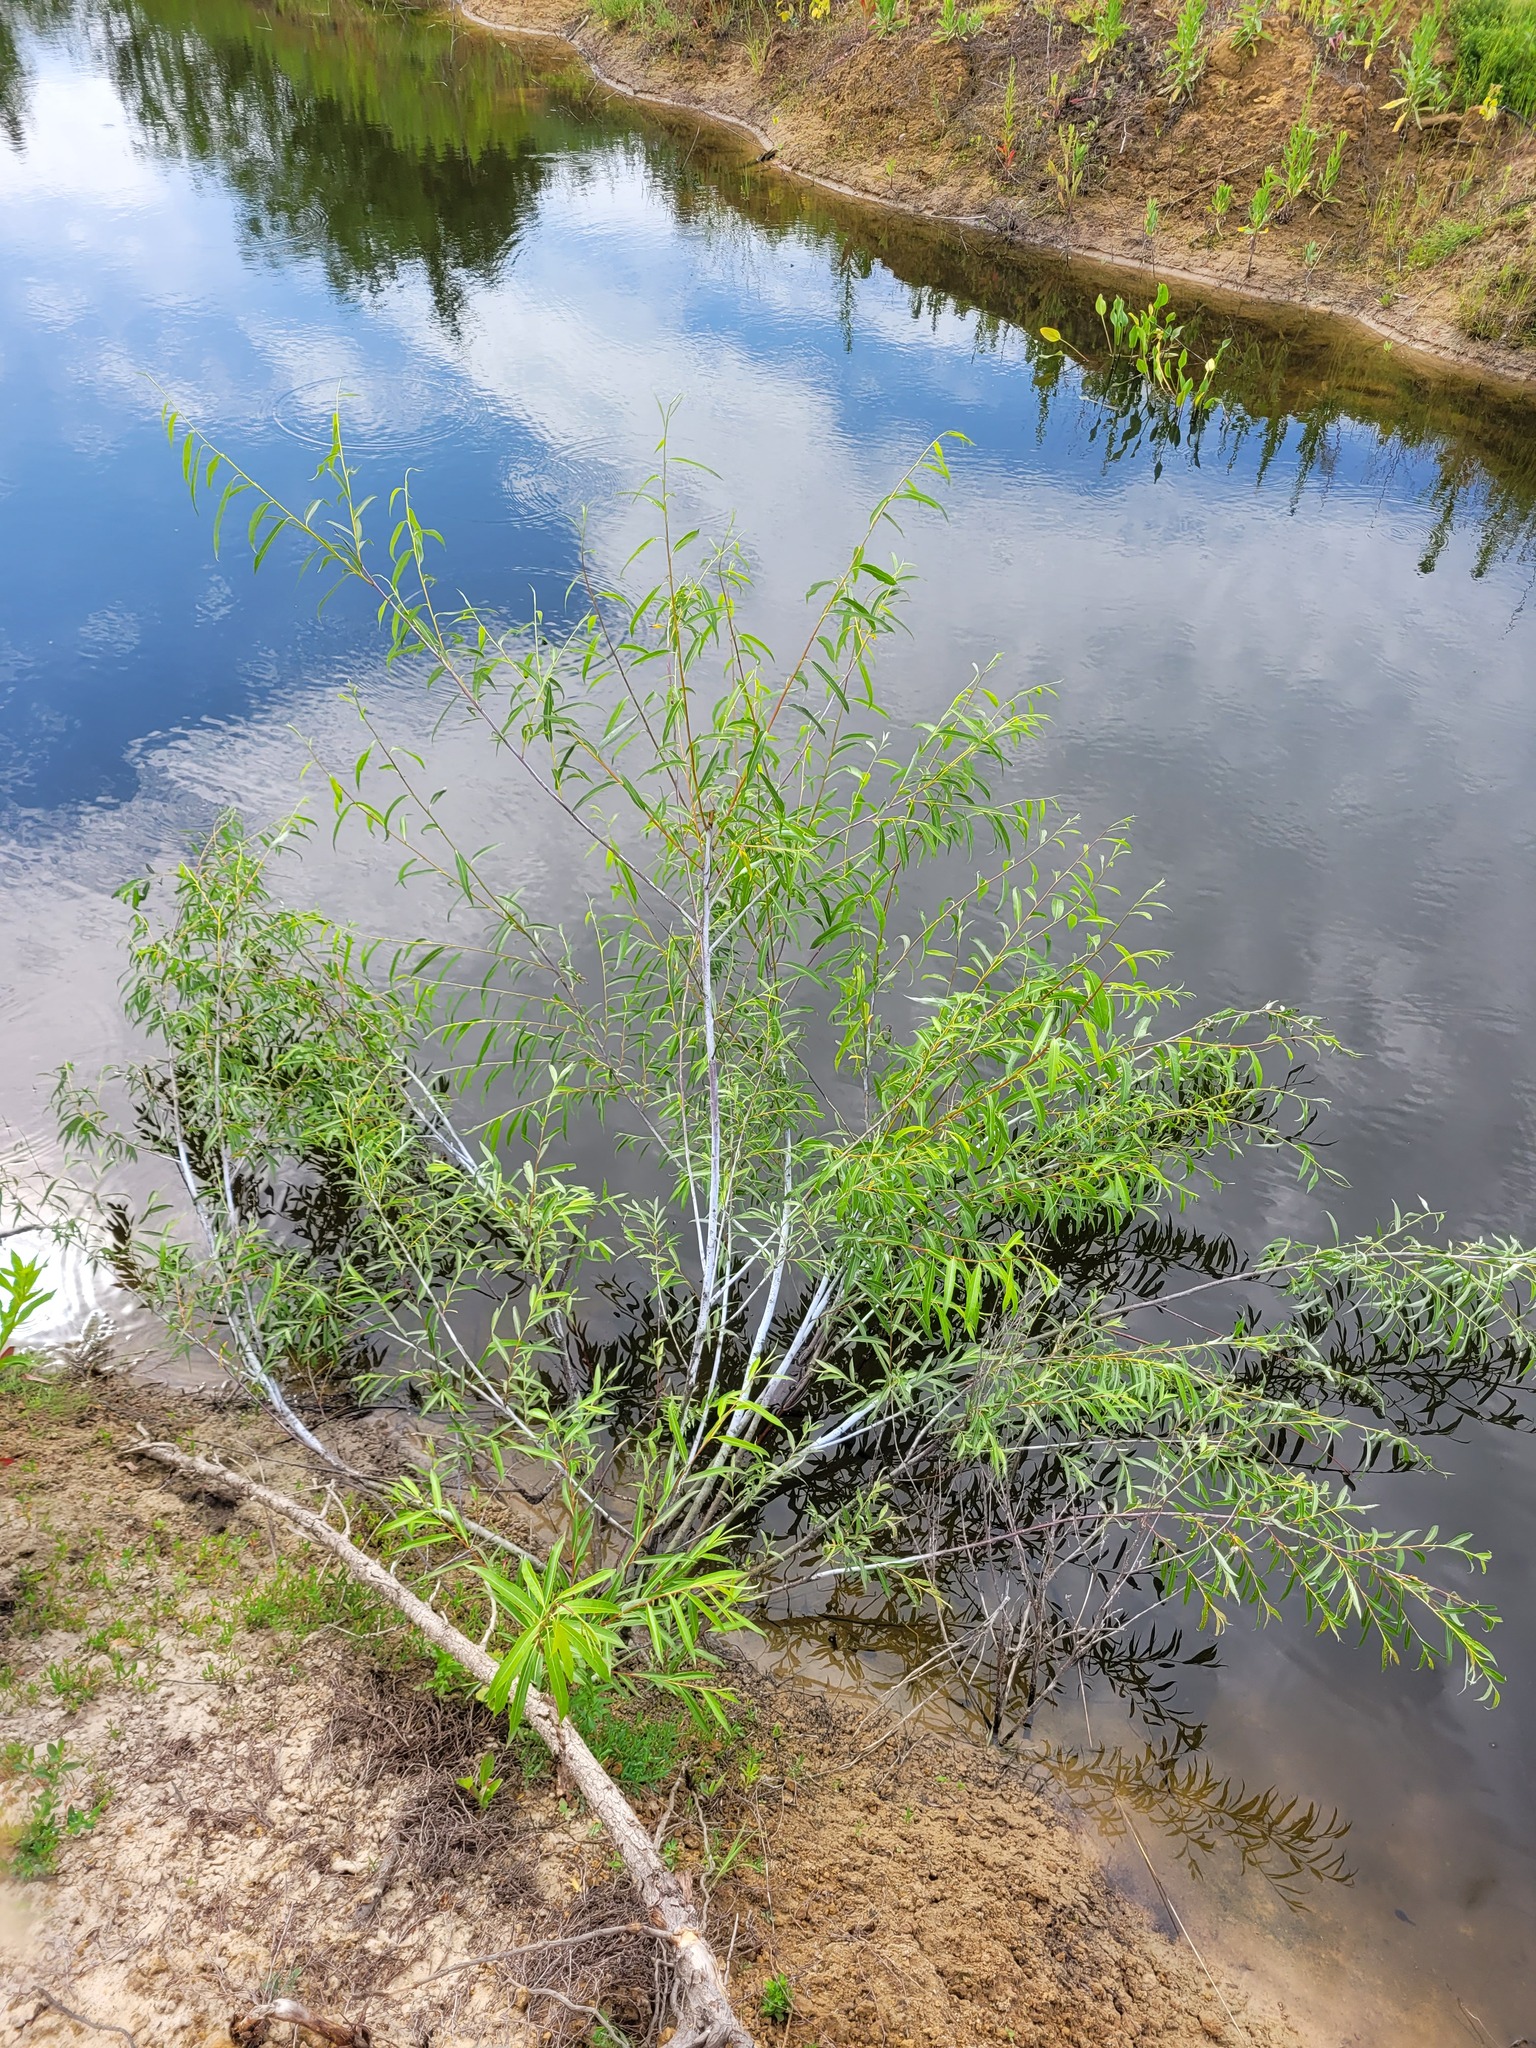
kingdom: Plantae
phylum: Tracheophyta
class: Magnoliopsida
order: Malpighiales
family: Salicaceae
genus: Salix
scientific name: Salix acutifolia
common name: Siberian violet-willow
